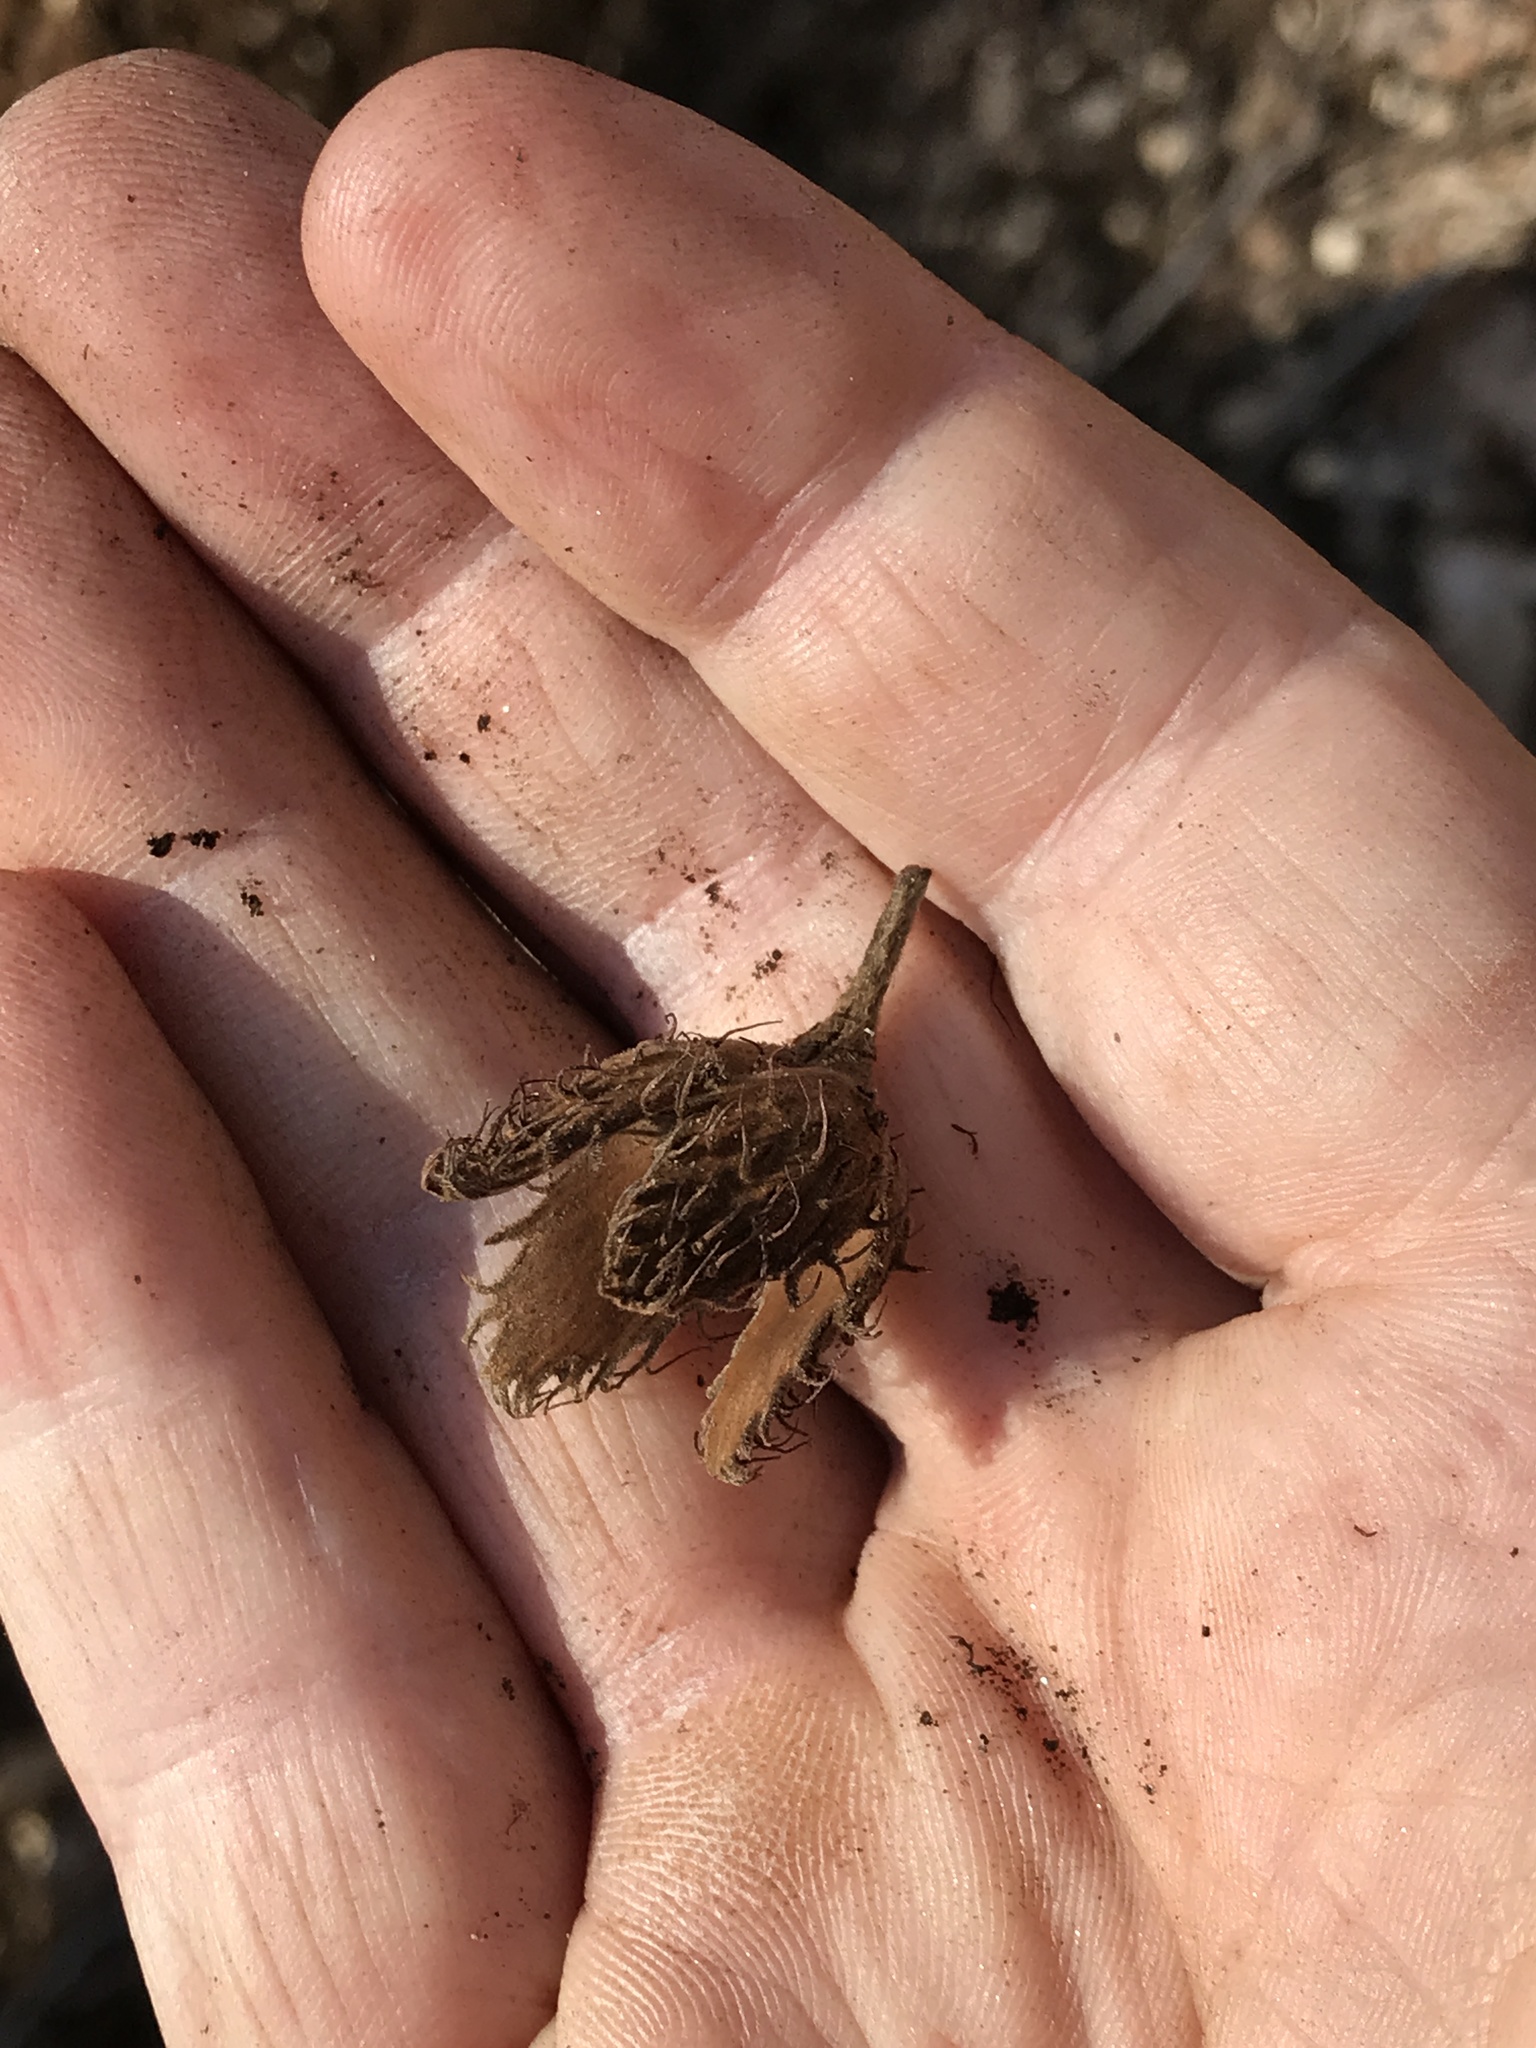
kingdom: Plantae
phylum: Tracheophyta
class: Magnoliopsida
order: Fagales
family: Fagaceae
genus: Fagus
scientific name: Fagus grandifolia
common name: American beech
